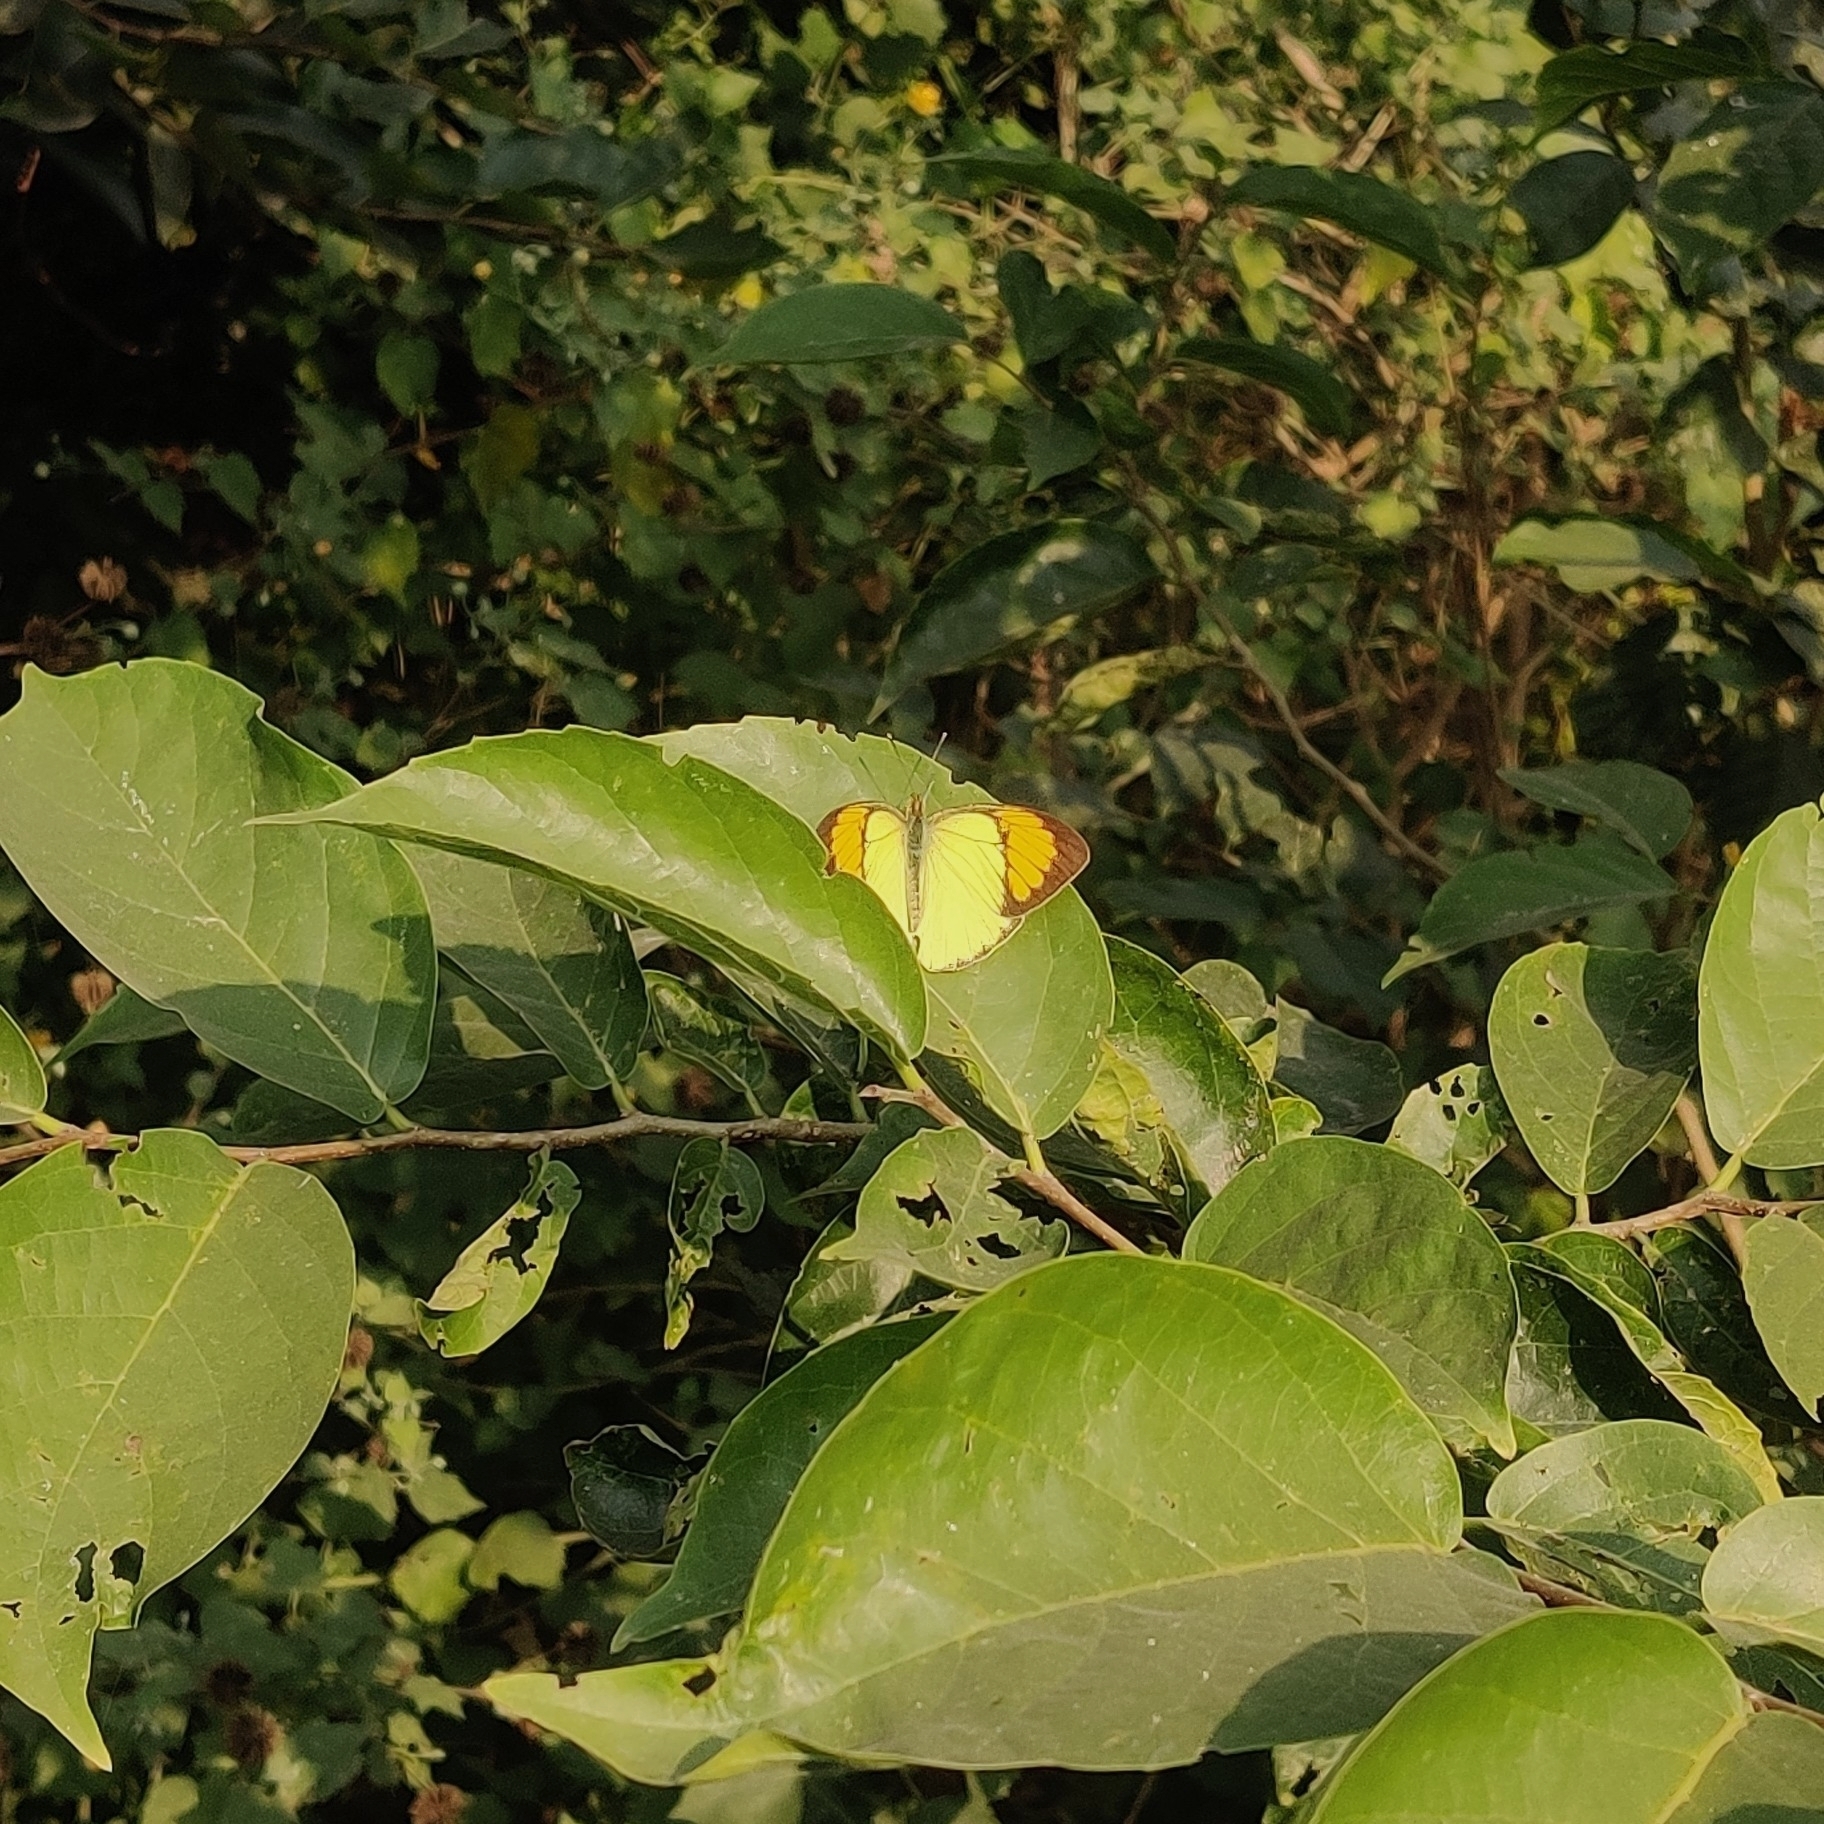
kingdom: Animalia
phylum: Arthropoda
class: Insecta
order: Lepidoptera
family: Pieridae
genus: Ixias
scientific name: Ixias pyrene
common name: Yellow orange tip
